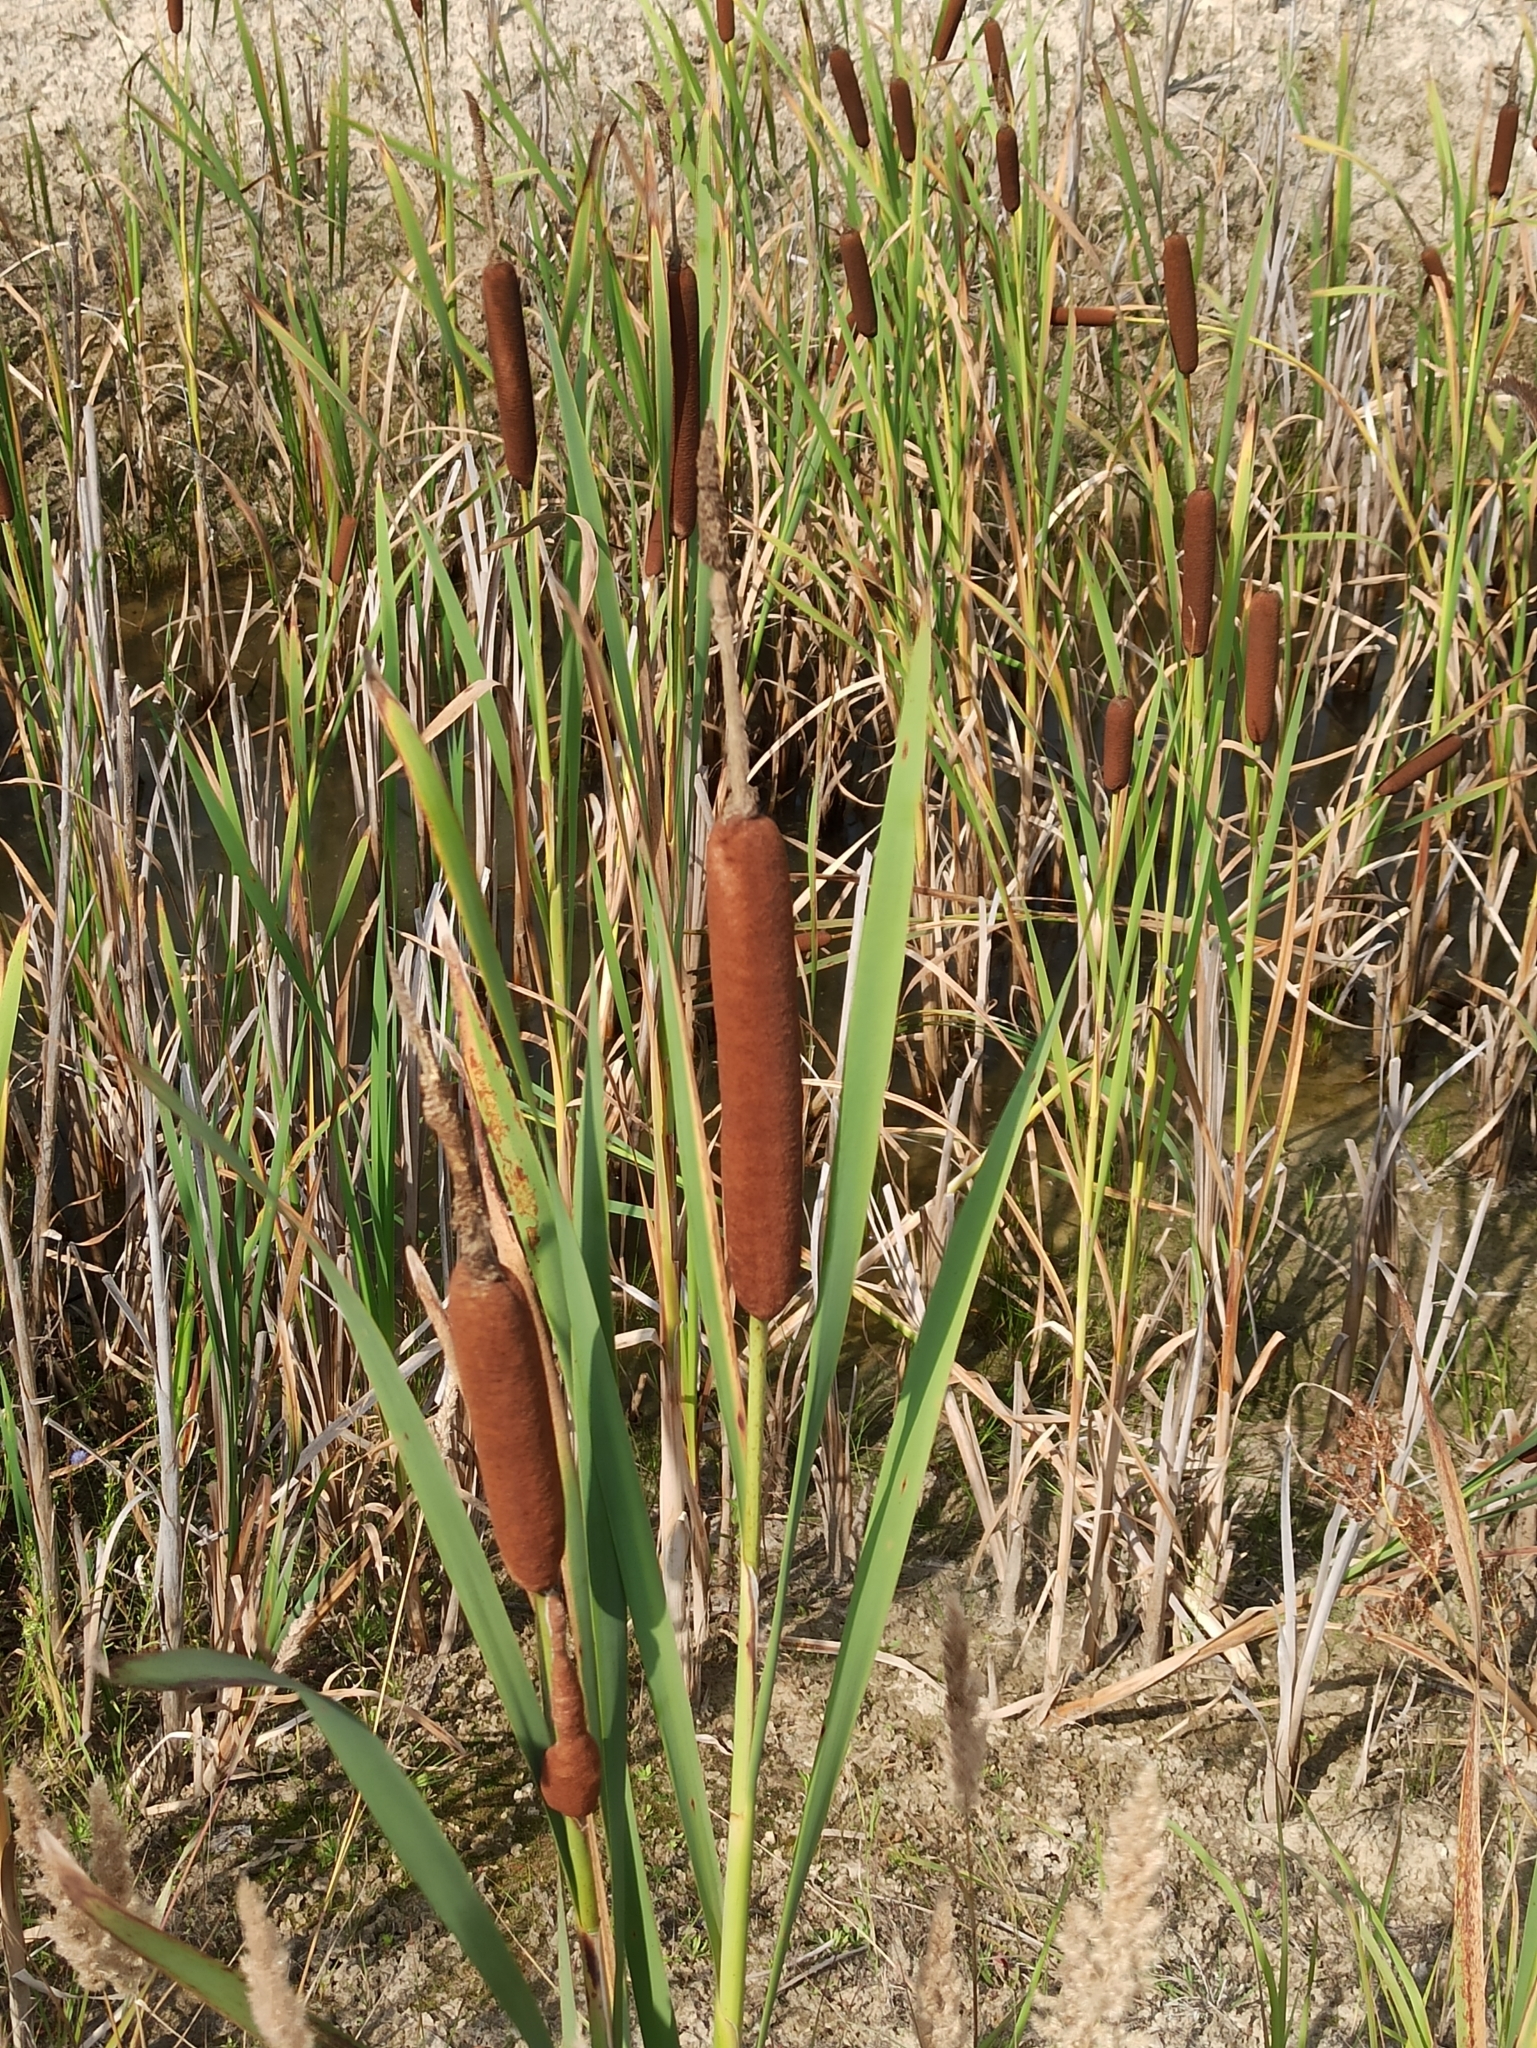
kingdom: Plantae
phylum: Tracheophyta
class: Liliopsida
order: Poales
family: Typhaceae
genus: Typha
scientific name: Typha latifolia
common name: Broadleaf cattail
